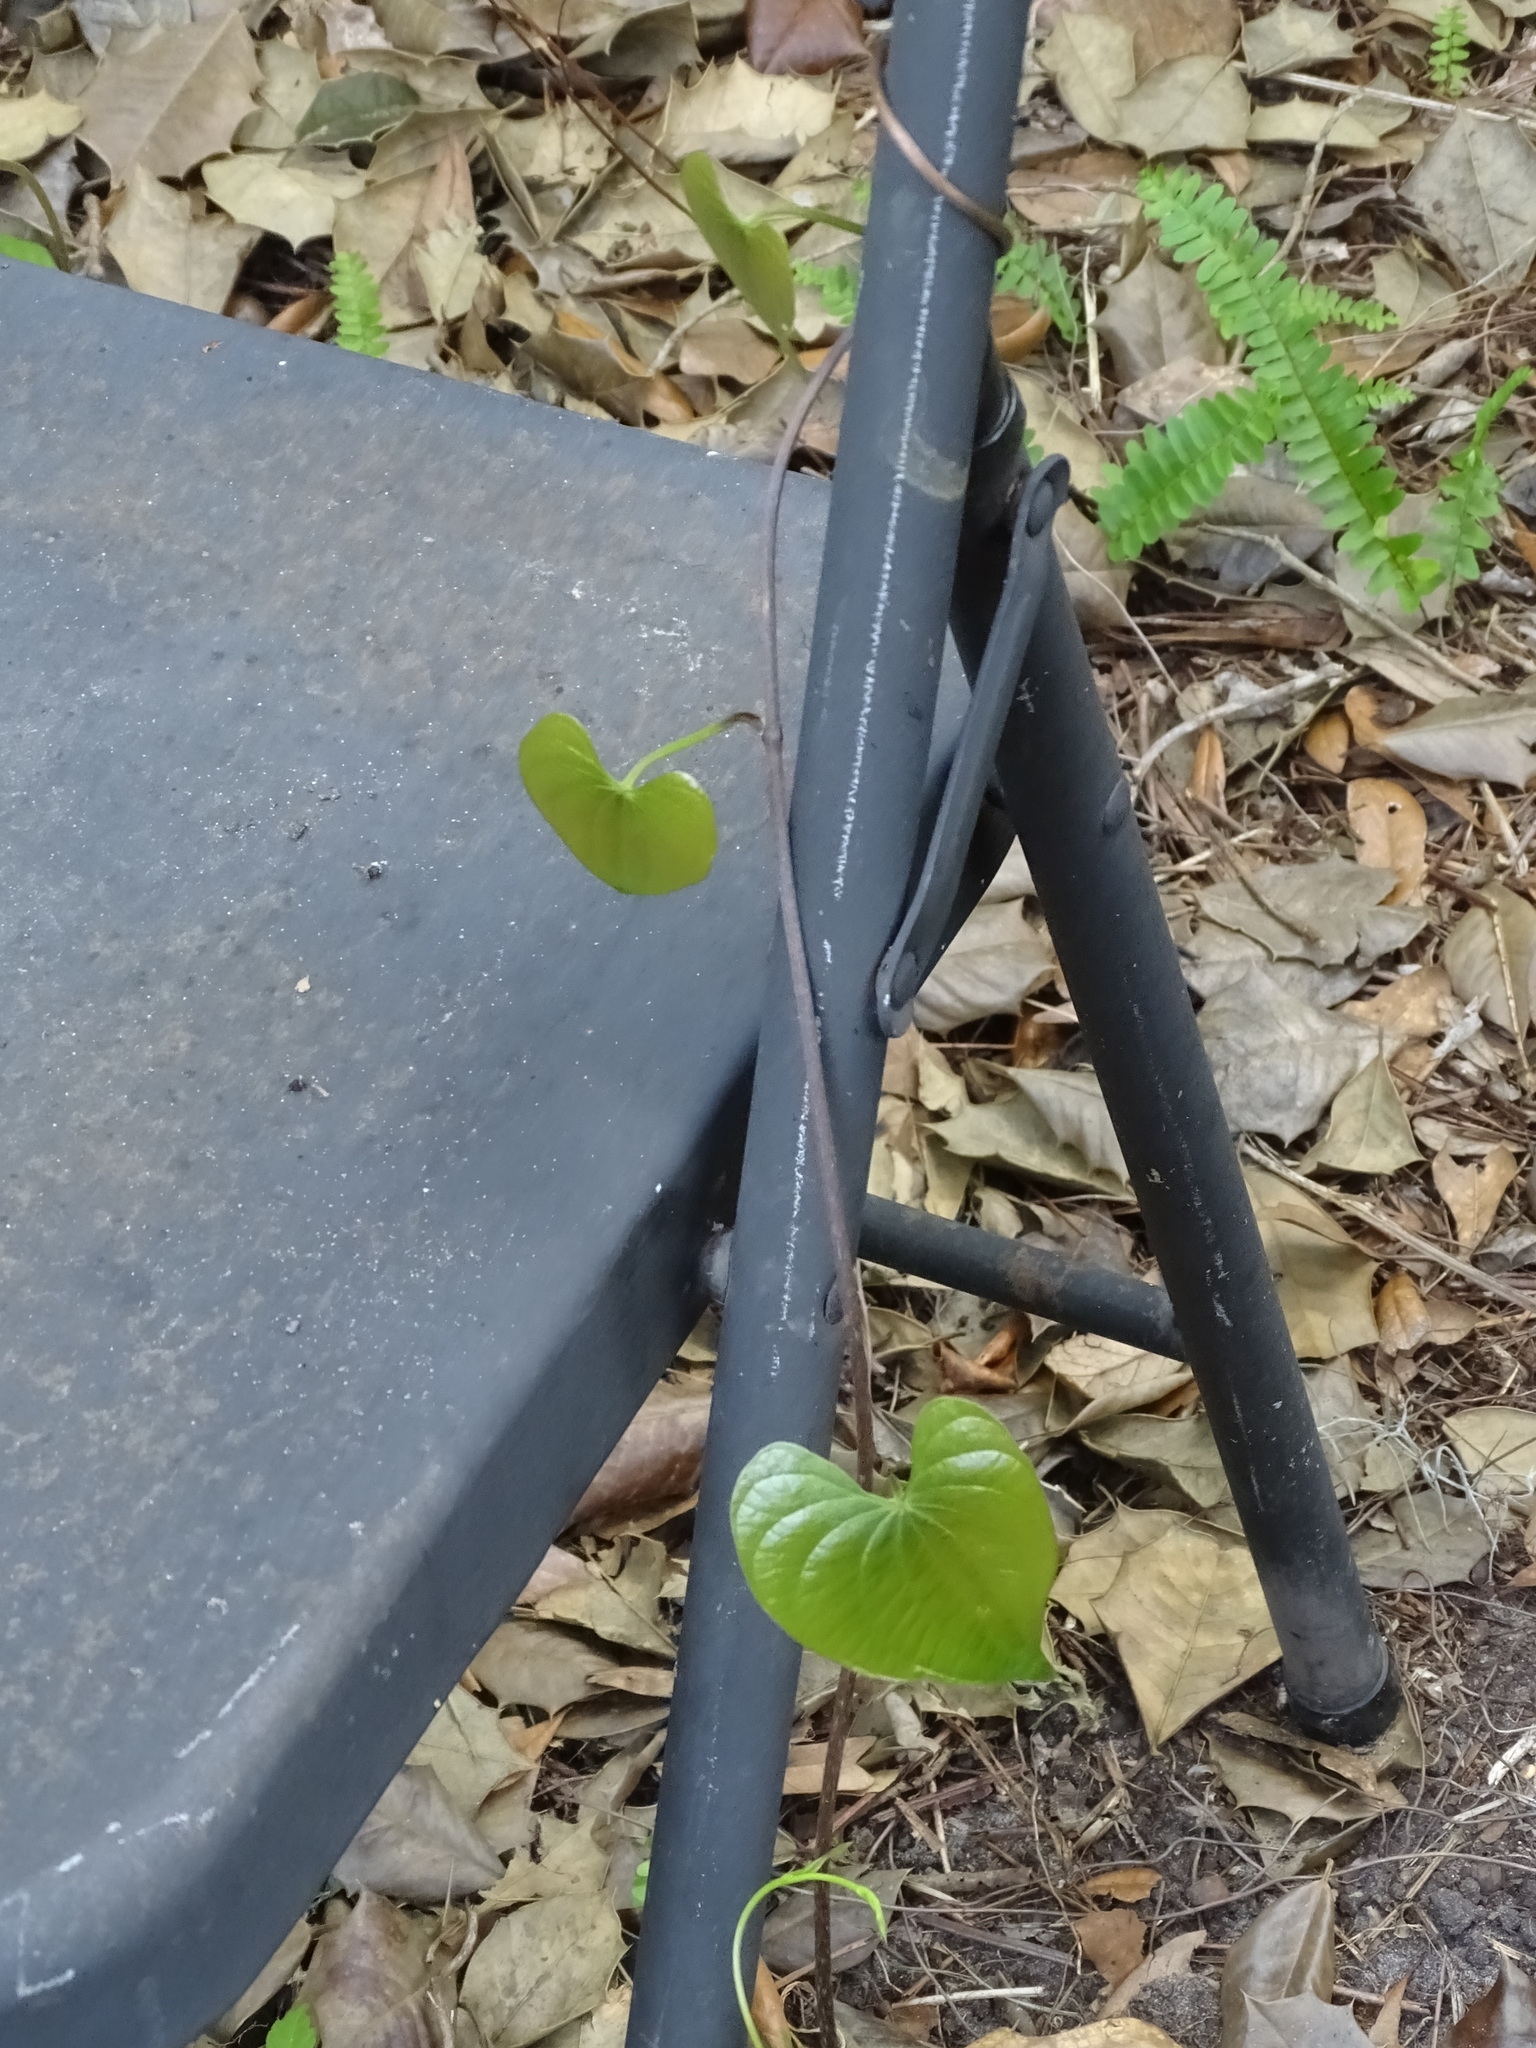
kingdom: Plantae
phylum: Tracheophyta
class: Liliopsida
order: Dioscoreales
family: Dioscoreaceae
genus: Dioscorea
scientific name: Dioscorea bulbifera
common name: Air yam
